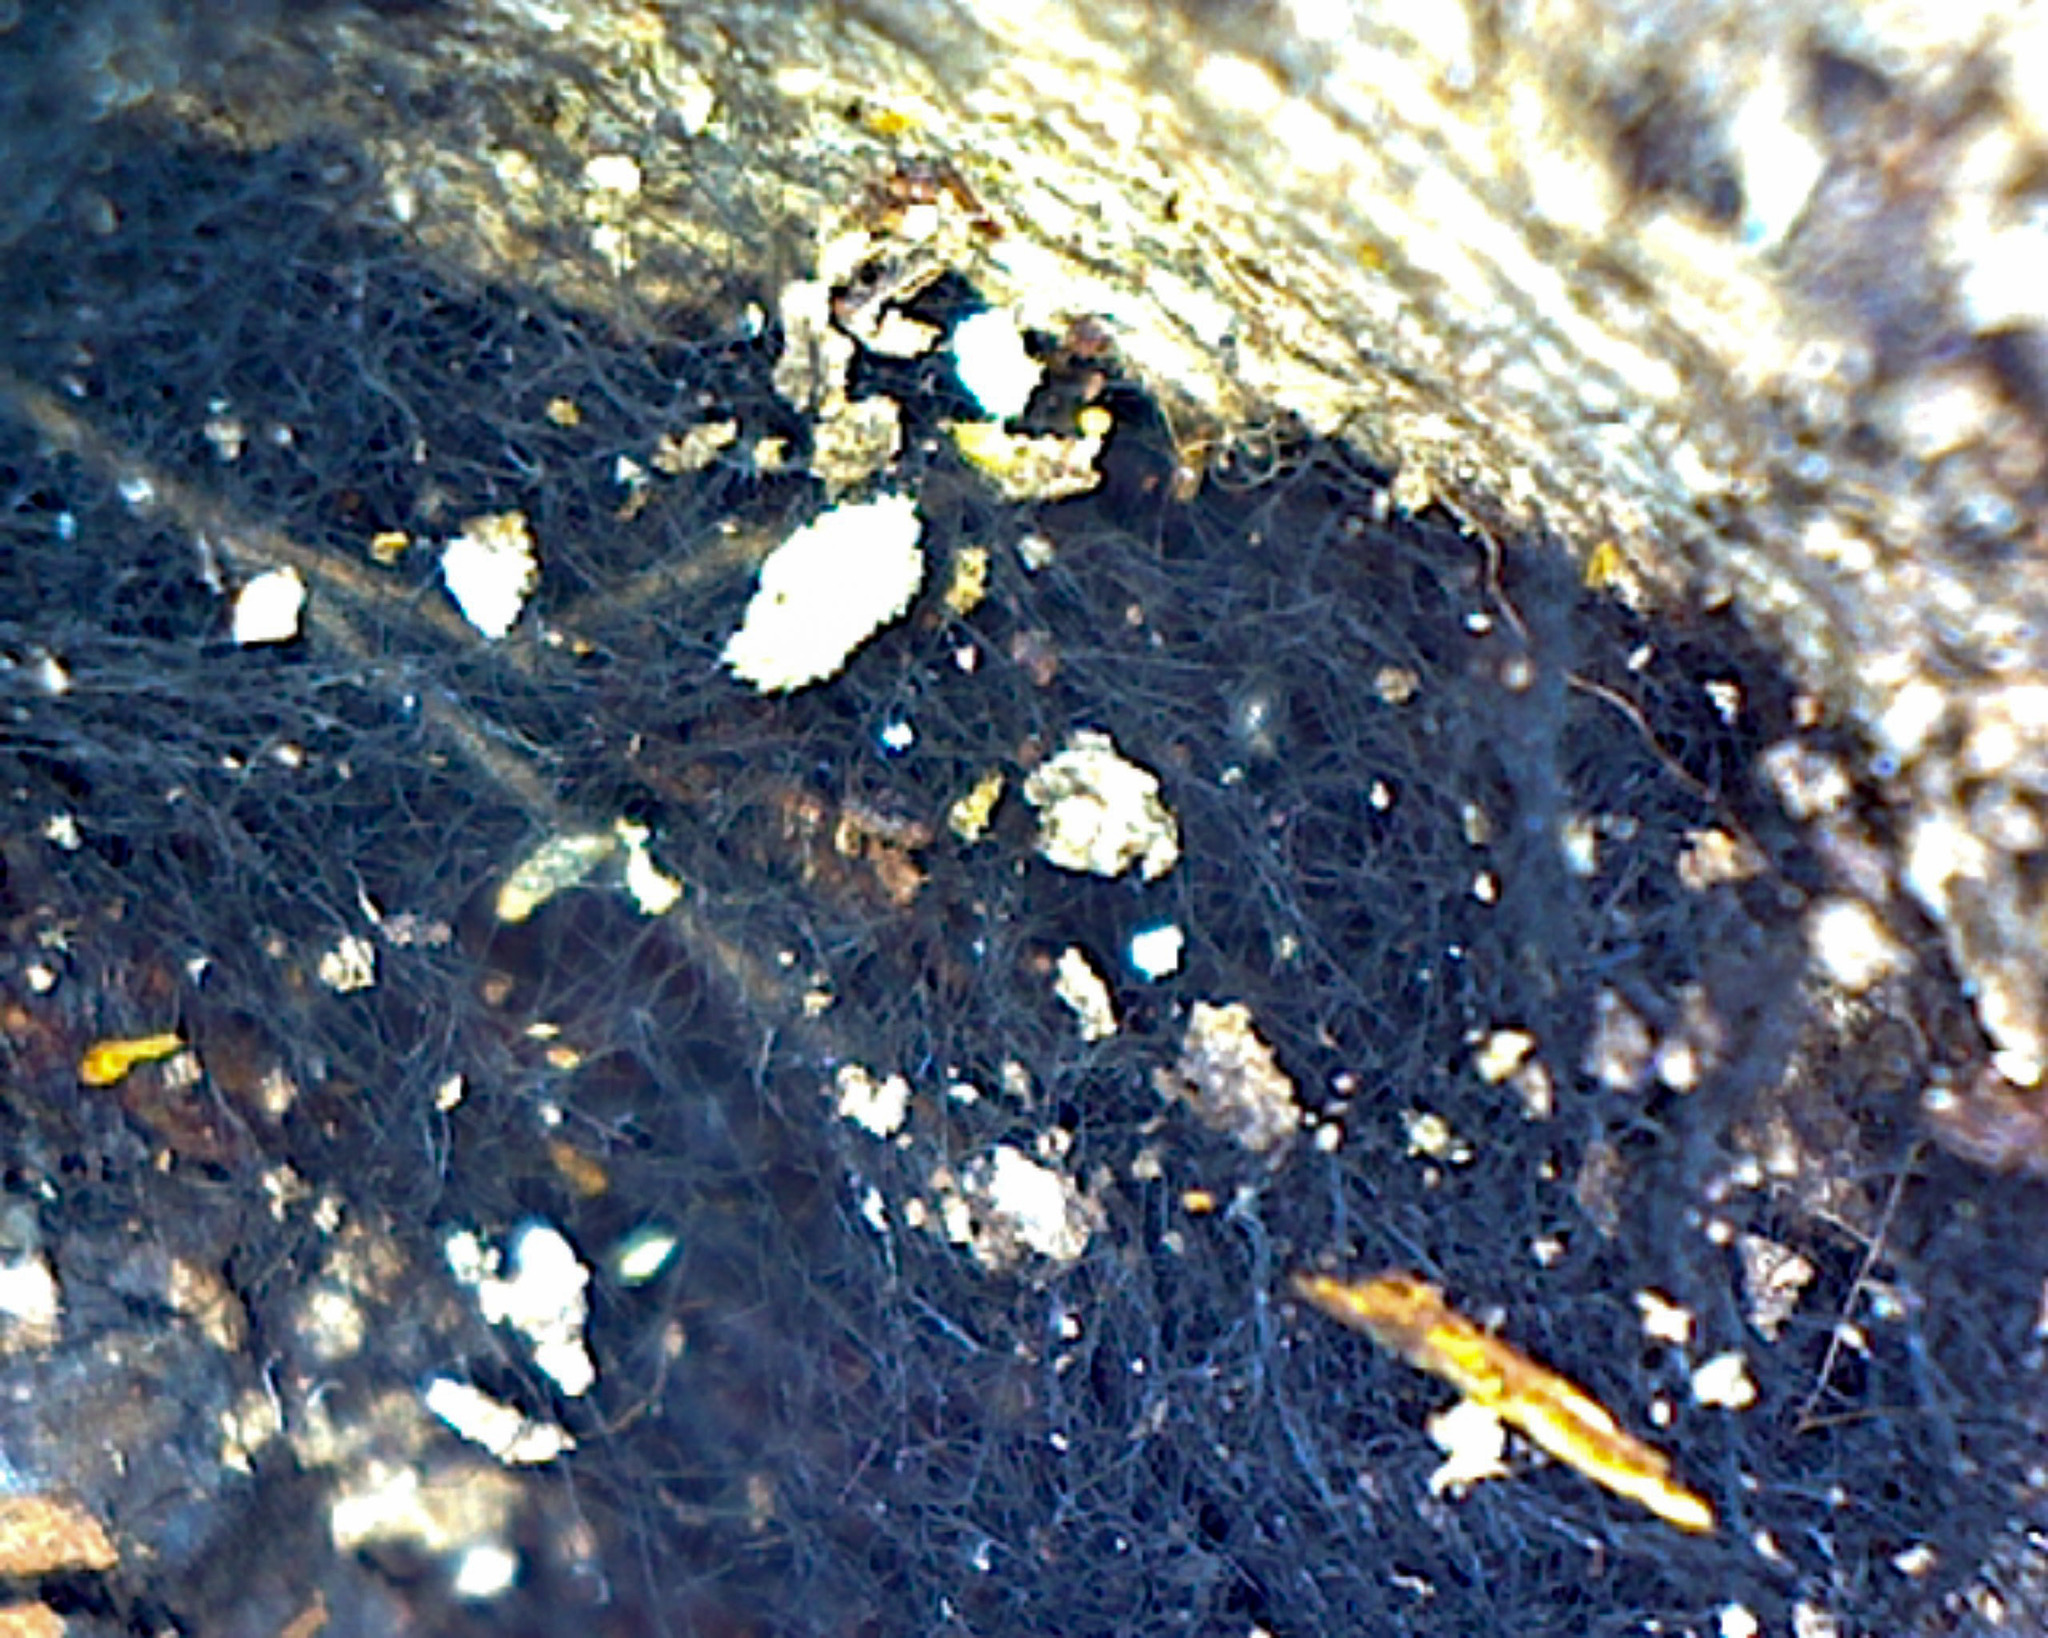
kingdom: Fungi
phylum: Ascomycota
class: Dothideomycetes
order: Mytilinidiales
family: Gloniaceae
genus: Glonium
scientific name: Glonium stellatum
